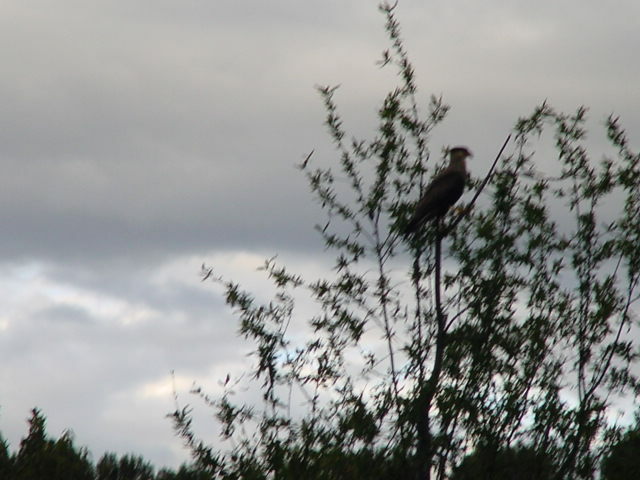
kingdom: Animalia
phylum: Chordata
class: Aves
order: Falconiformes
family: Falconidae
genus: Caracara
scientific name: Caracara plancus
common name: Southern caracara
